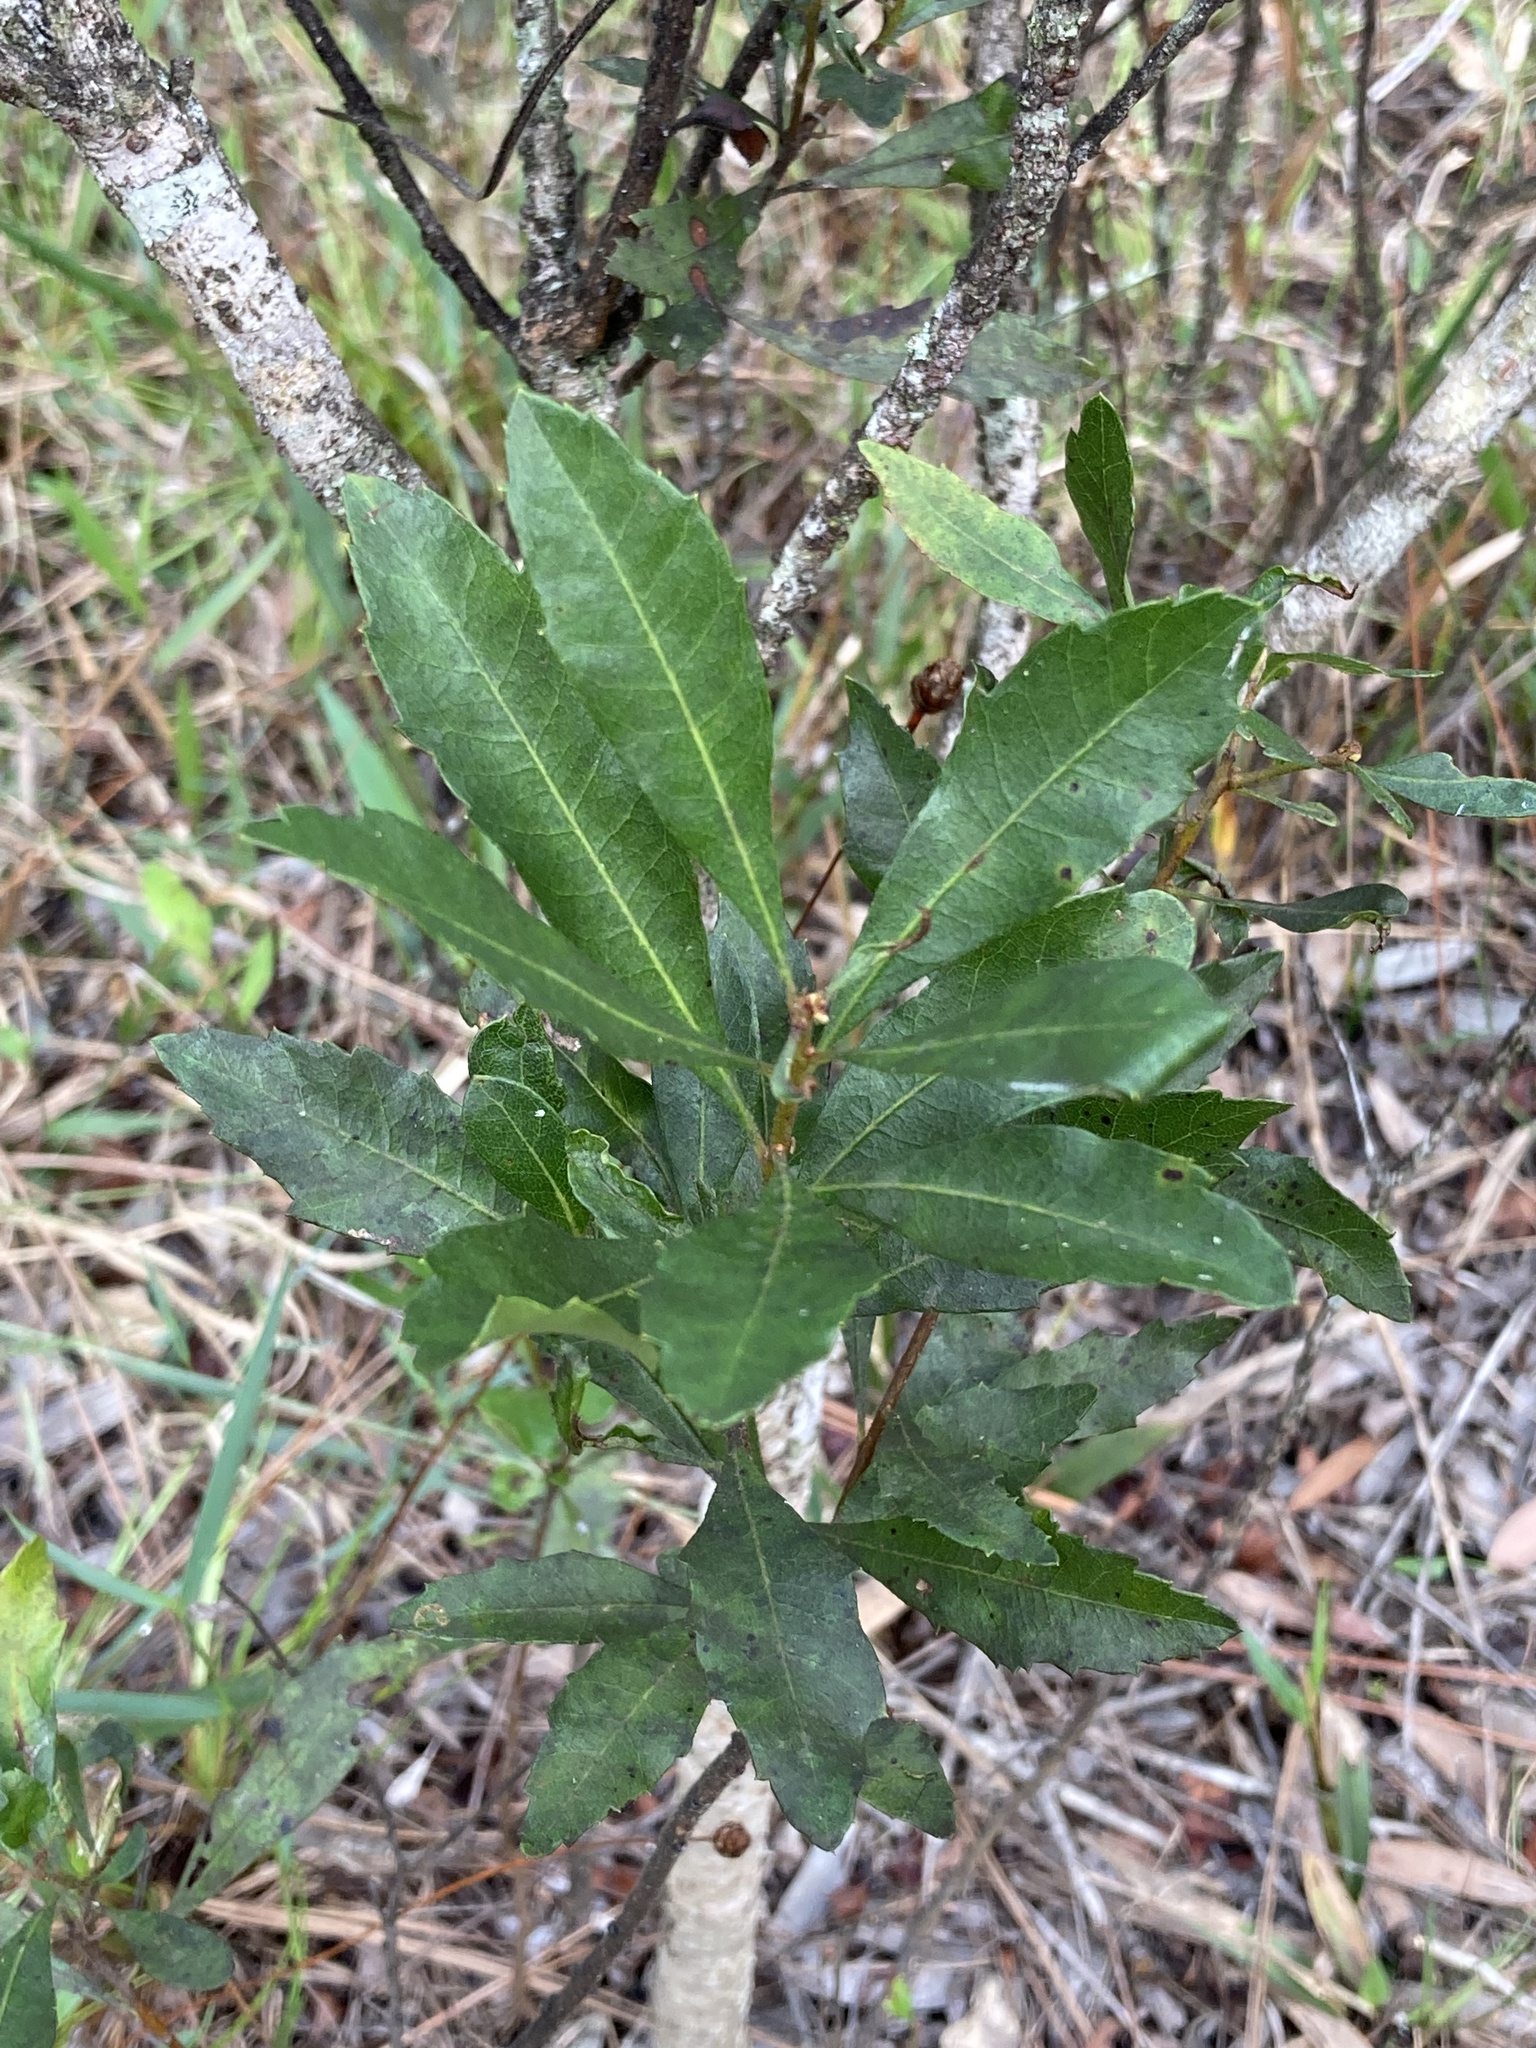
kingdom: Plantae
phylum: Tracheophyta
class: Magnoliopsida
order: Fagales
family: Myricaceae
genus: Morella
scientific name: Morella cerifera
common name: Wax myrtle
